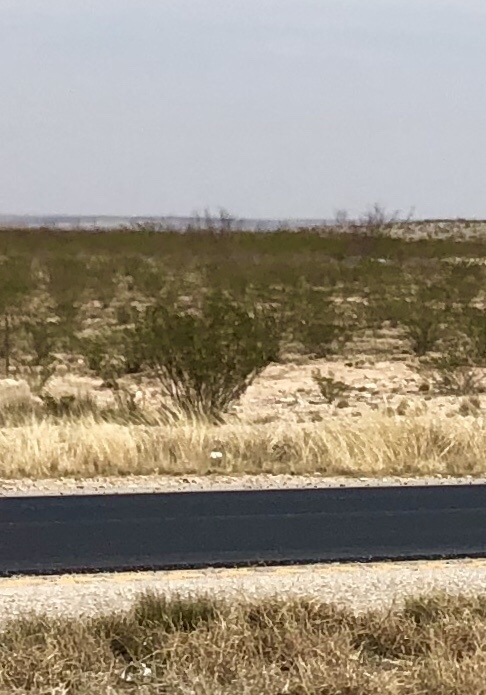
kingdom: Plantae
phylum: Tracheophyta
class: Magnoliopsida
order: Zygophyllales
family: Zygophyllaceae
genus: Larrea
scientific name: Larrea tridentata
